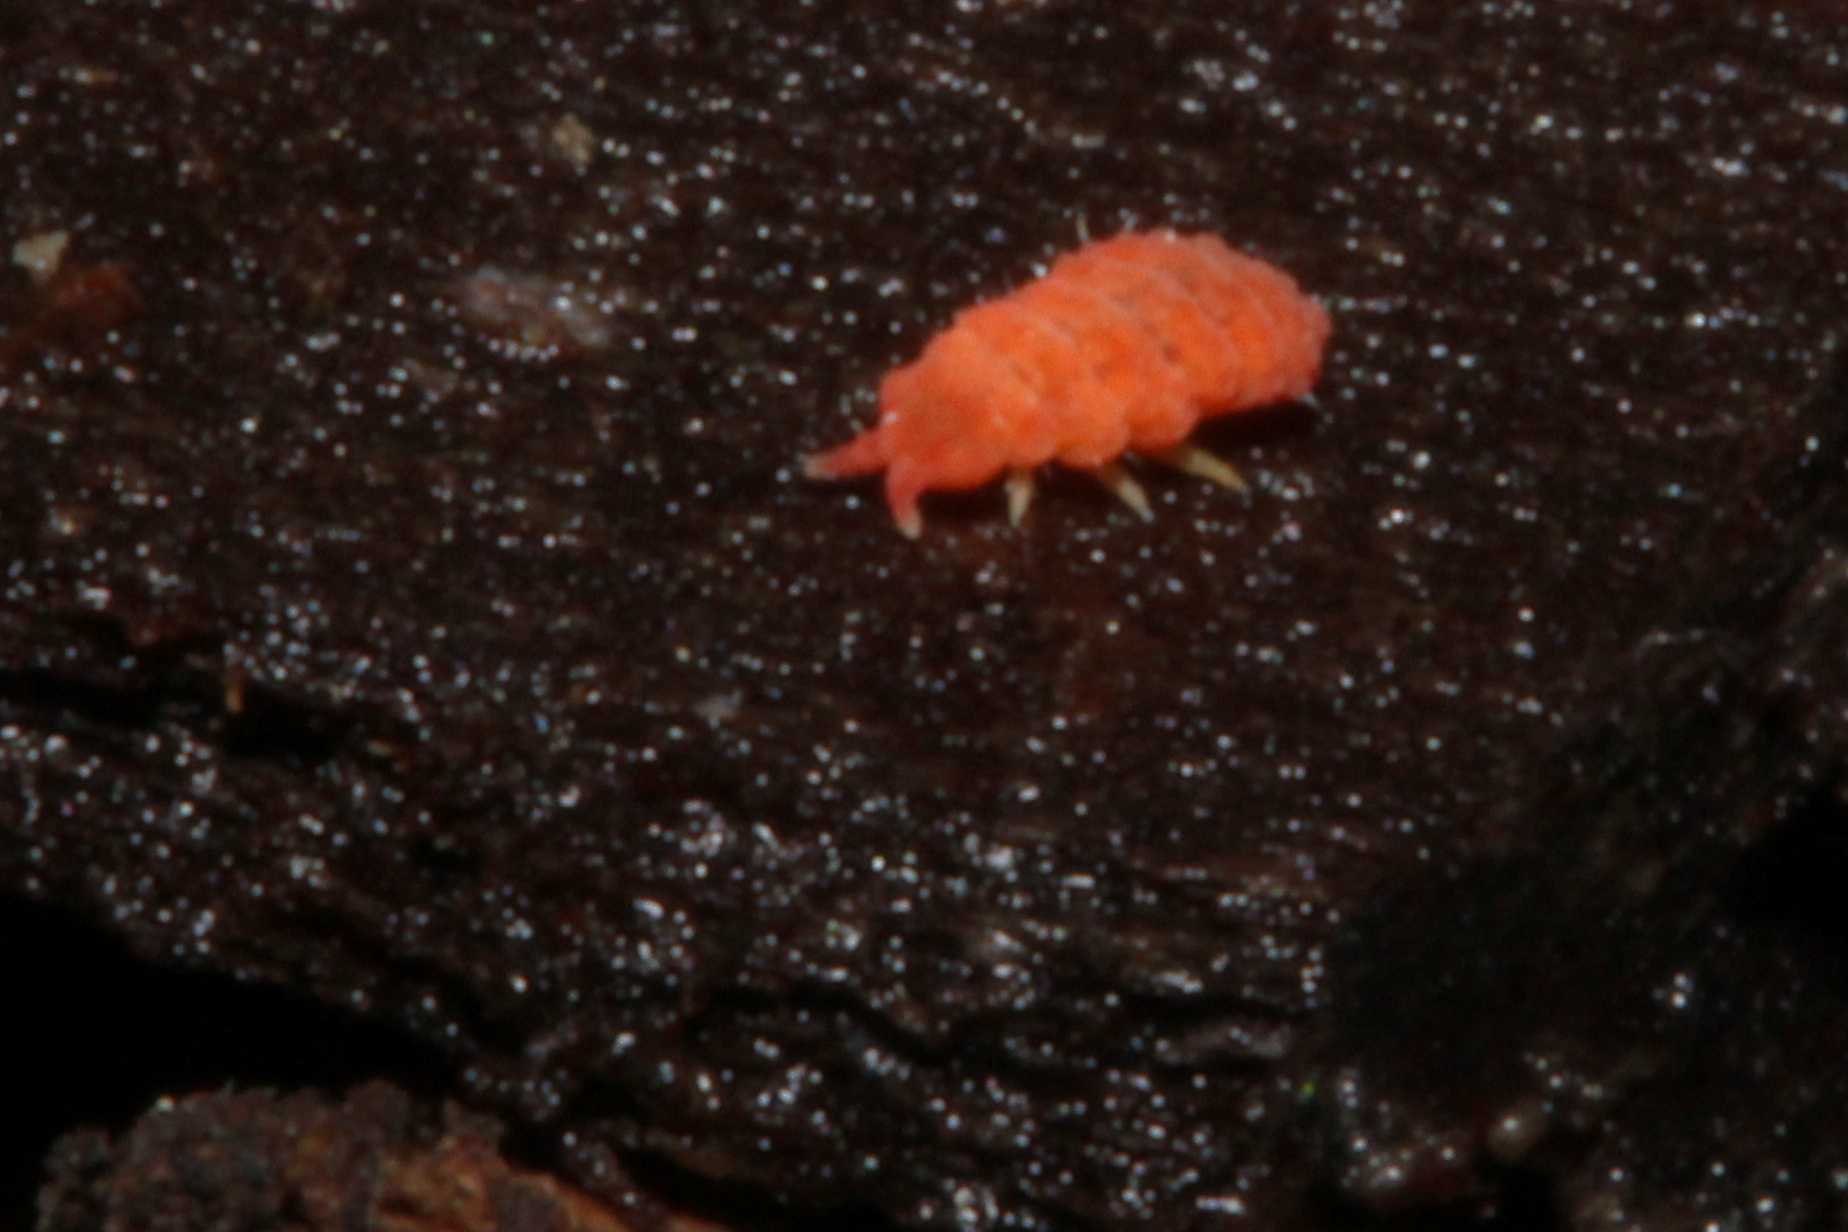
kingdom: Animalia
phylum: Arthropoda
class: Collembola
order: Poduromorpha
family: Neanuridae
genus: Bilobella
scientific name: Bilobella braunerae
